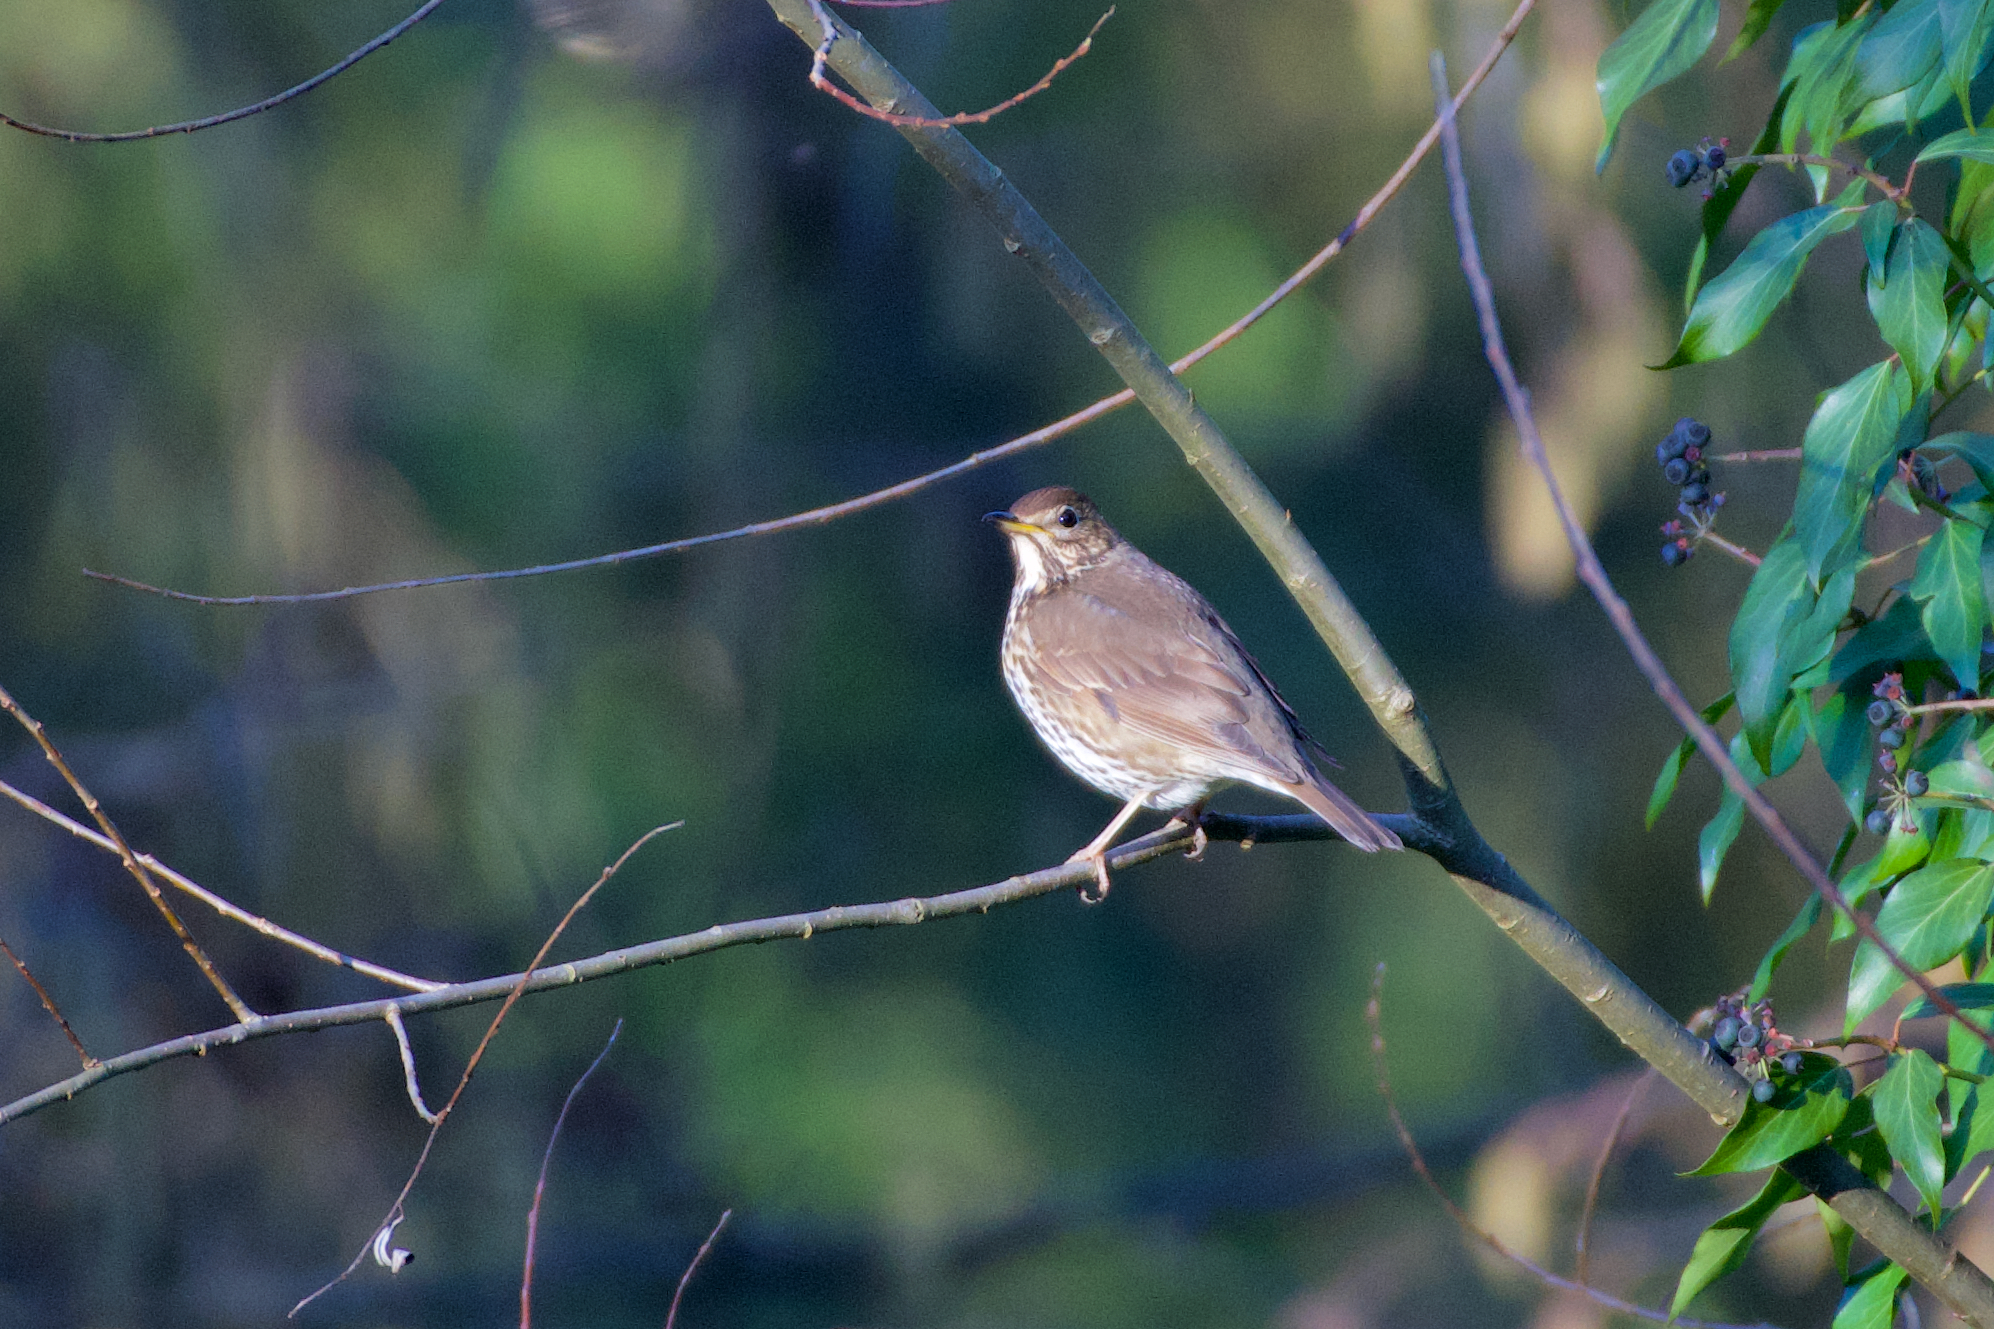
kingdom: Animalia
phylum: Chordata
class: Aves
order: Passeriformes
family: Turdidae
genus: Turdus
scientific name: Turdus philomelos
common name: Song thrush
